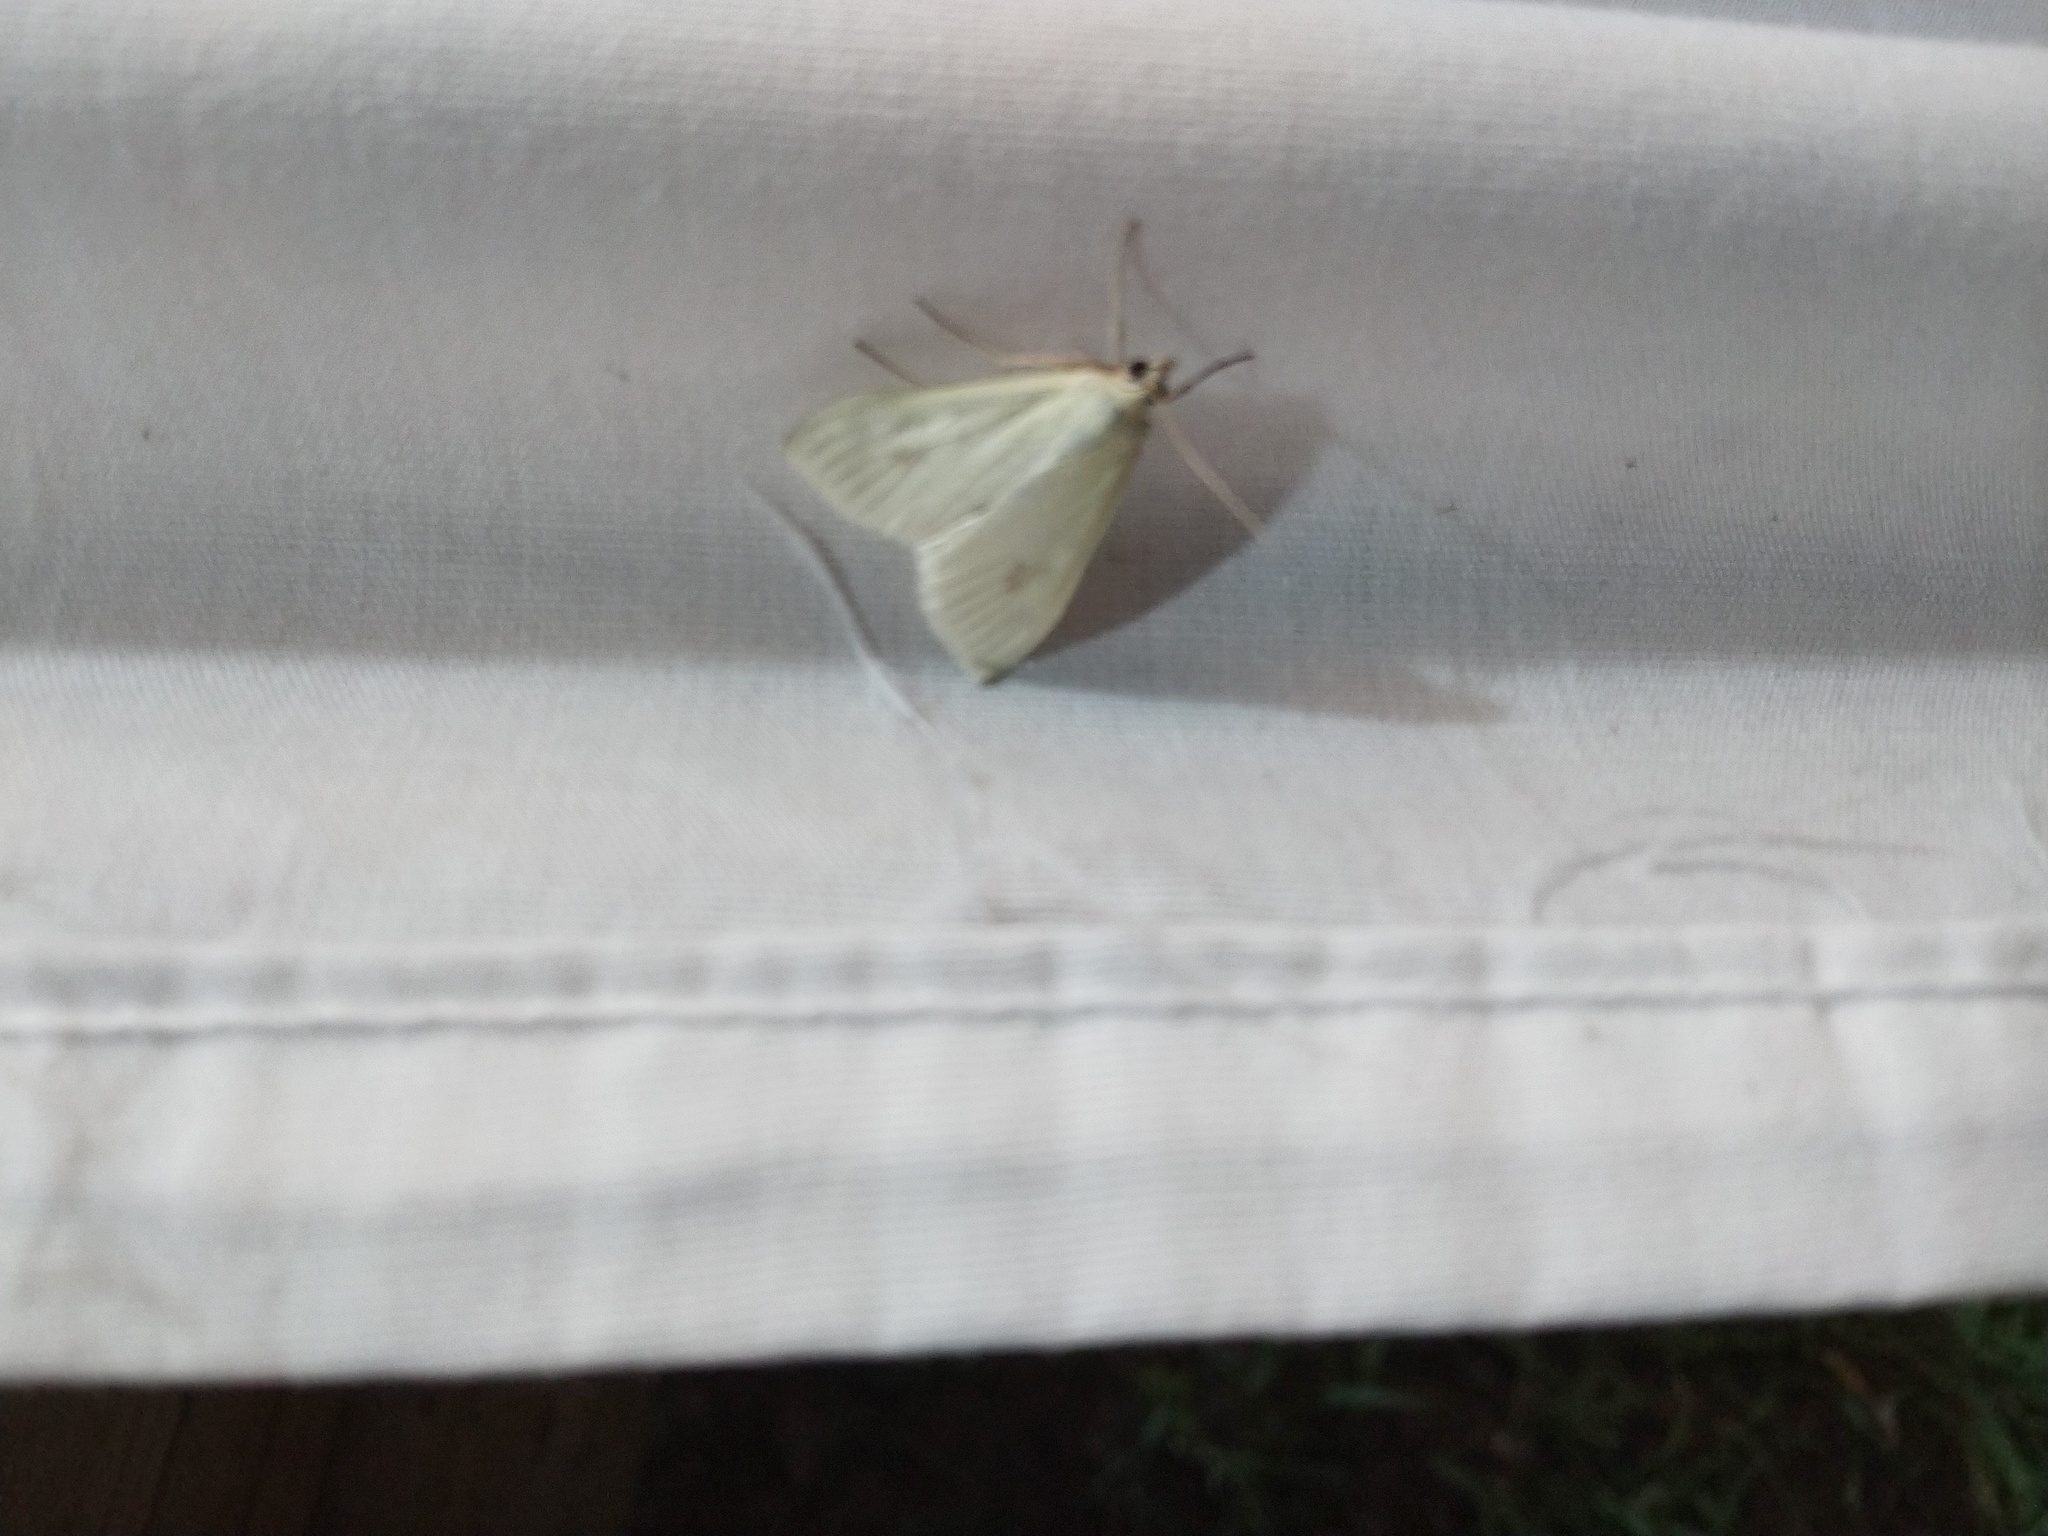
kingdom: Animalia
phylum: Arthropoda
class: Insecta
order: Lepidoptera
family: Crambidae
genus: Sitochroa
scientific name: Sitochroa palealis
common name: Greenish-yellow sitochroa moth
